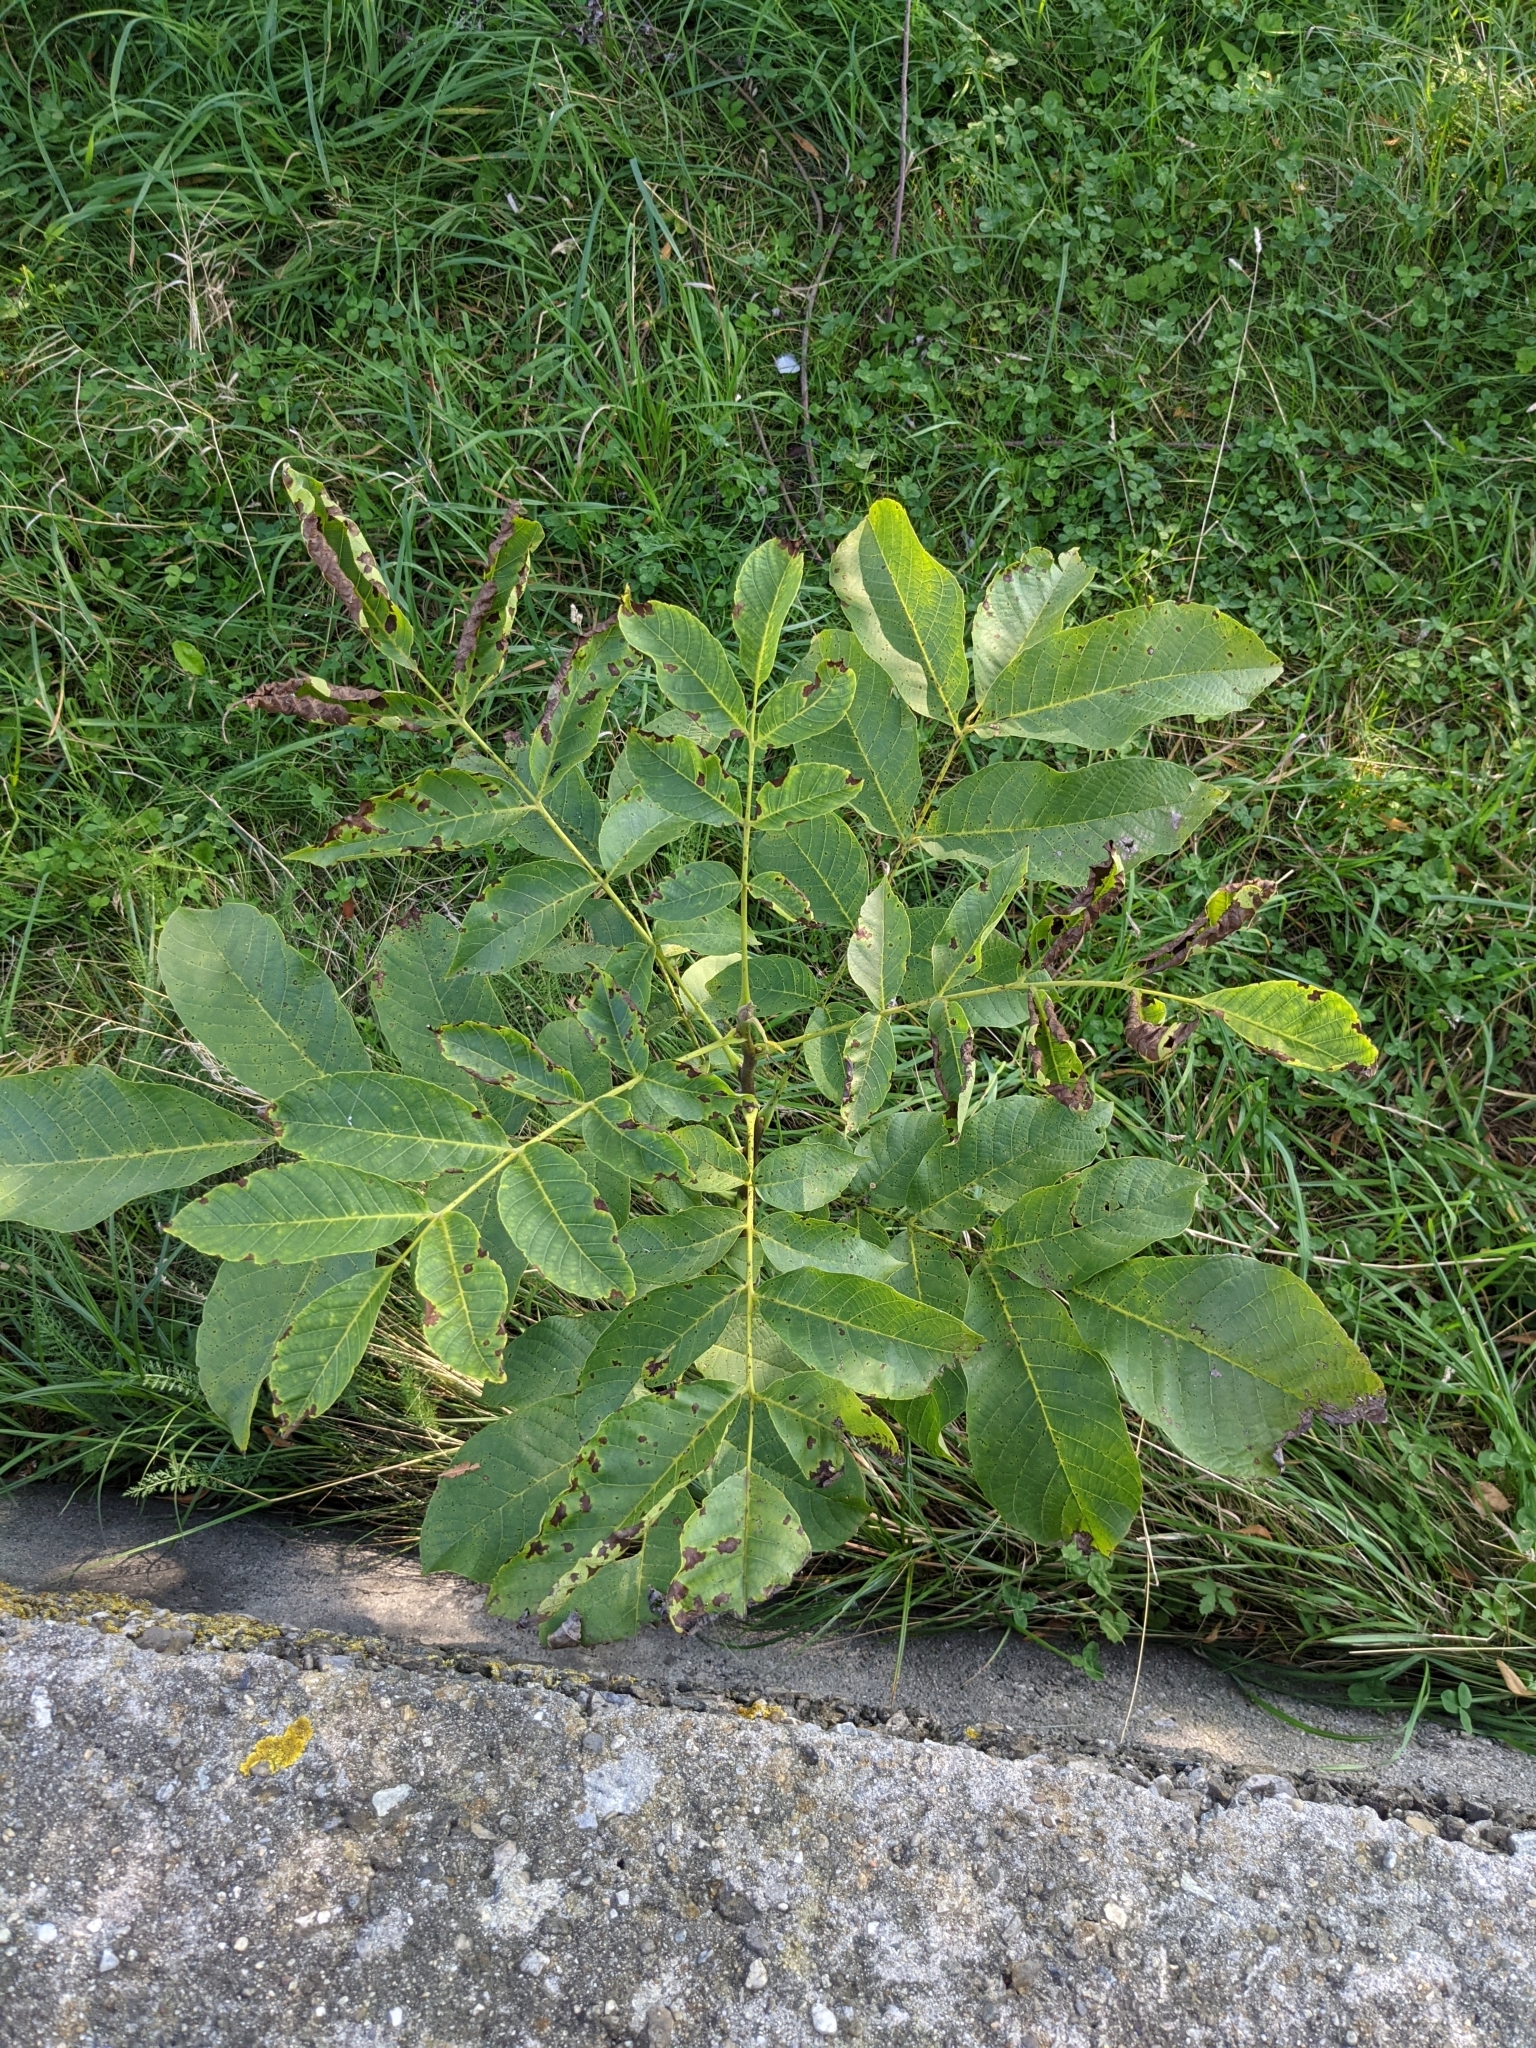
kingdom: Plantae
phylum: Tracheophyta
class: Magnoliopsida
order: Lamiales
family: Oleaceae
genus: Fraxinus
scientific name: Fraxinus excelsior
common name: European ash
